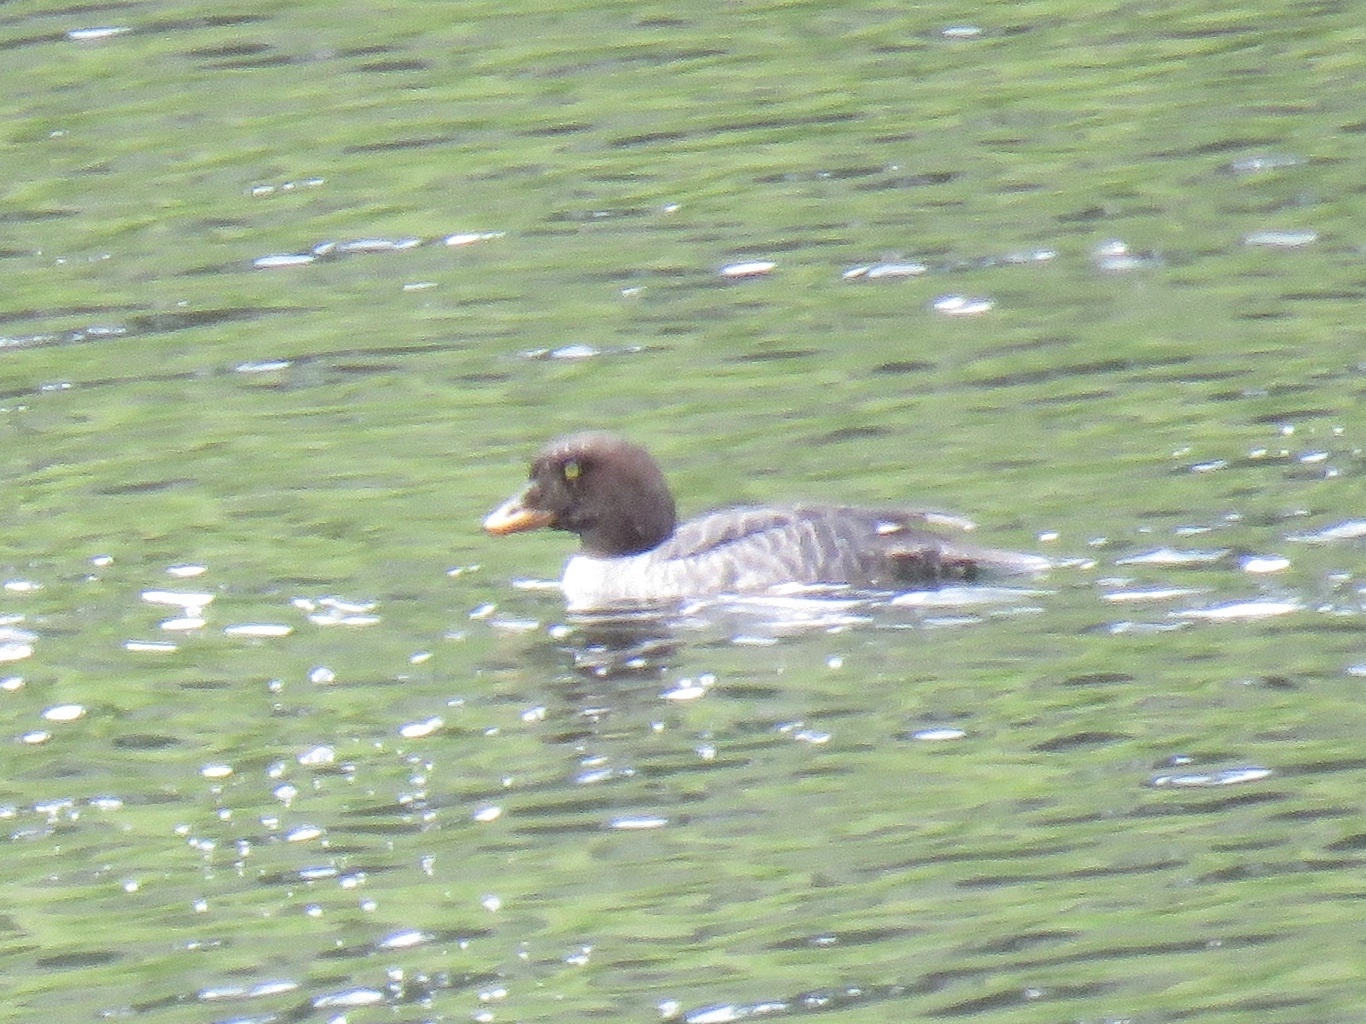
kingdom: Animalia
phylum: Chordata
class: Aves
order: Anseriformes
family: Anatidae
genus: Bucephala
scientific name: Bucephala islandica
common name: Barrow's goldeneye
